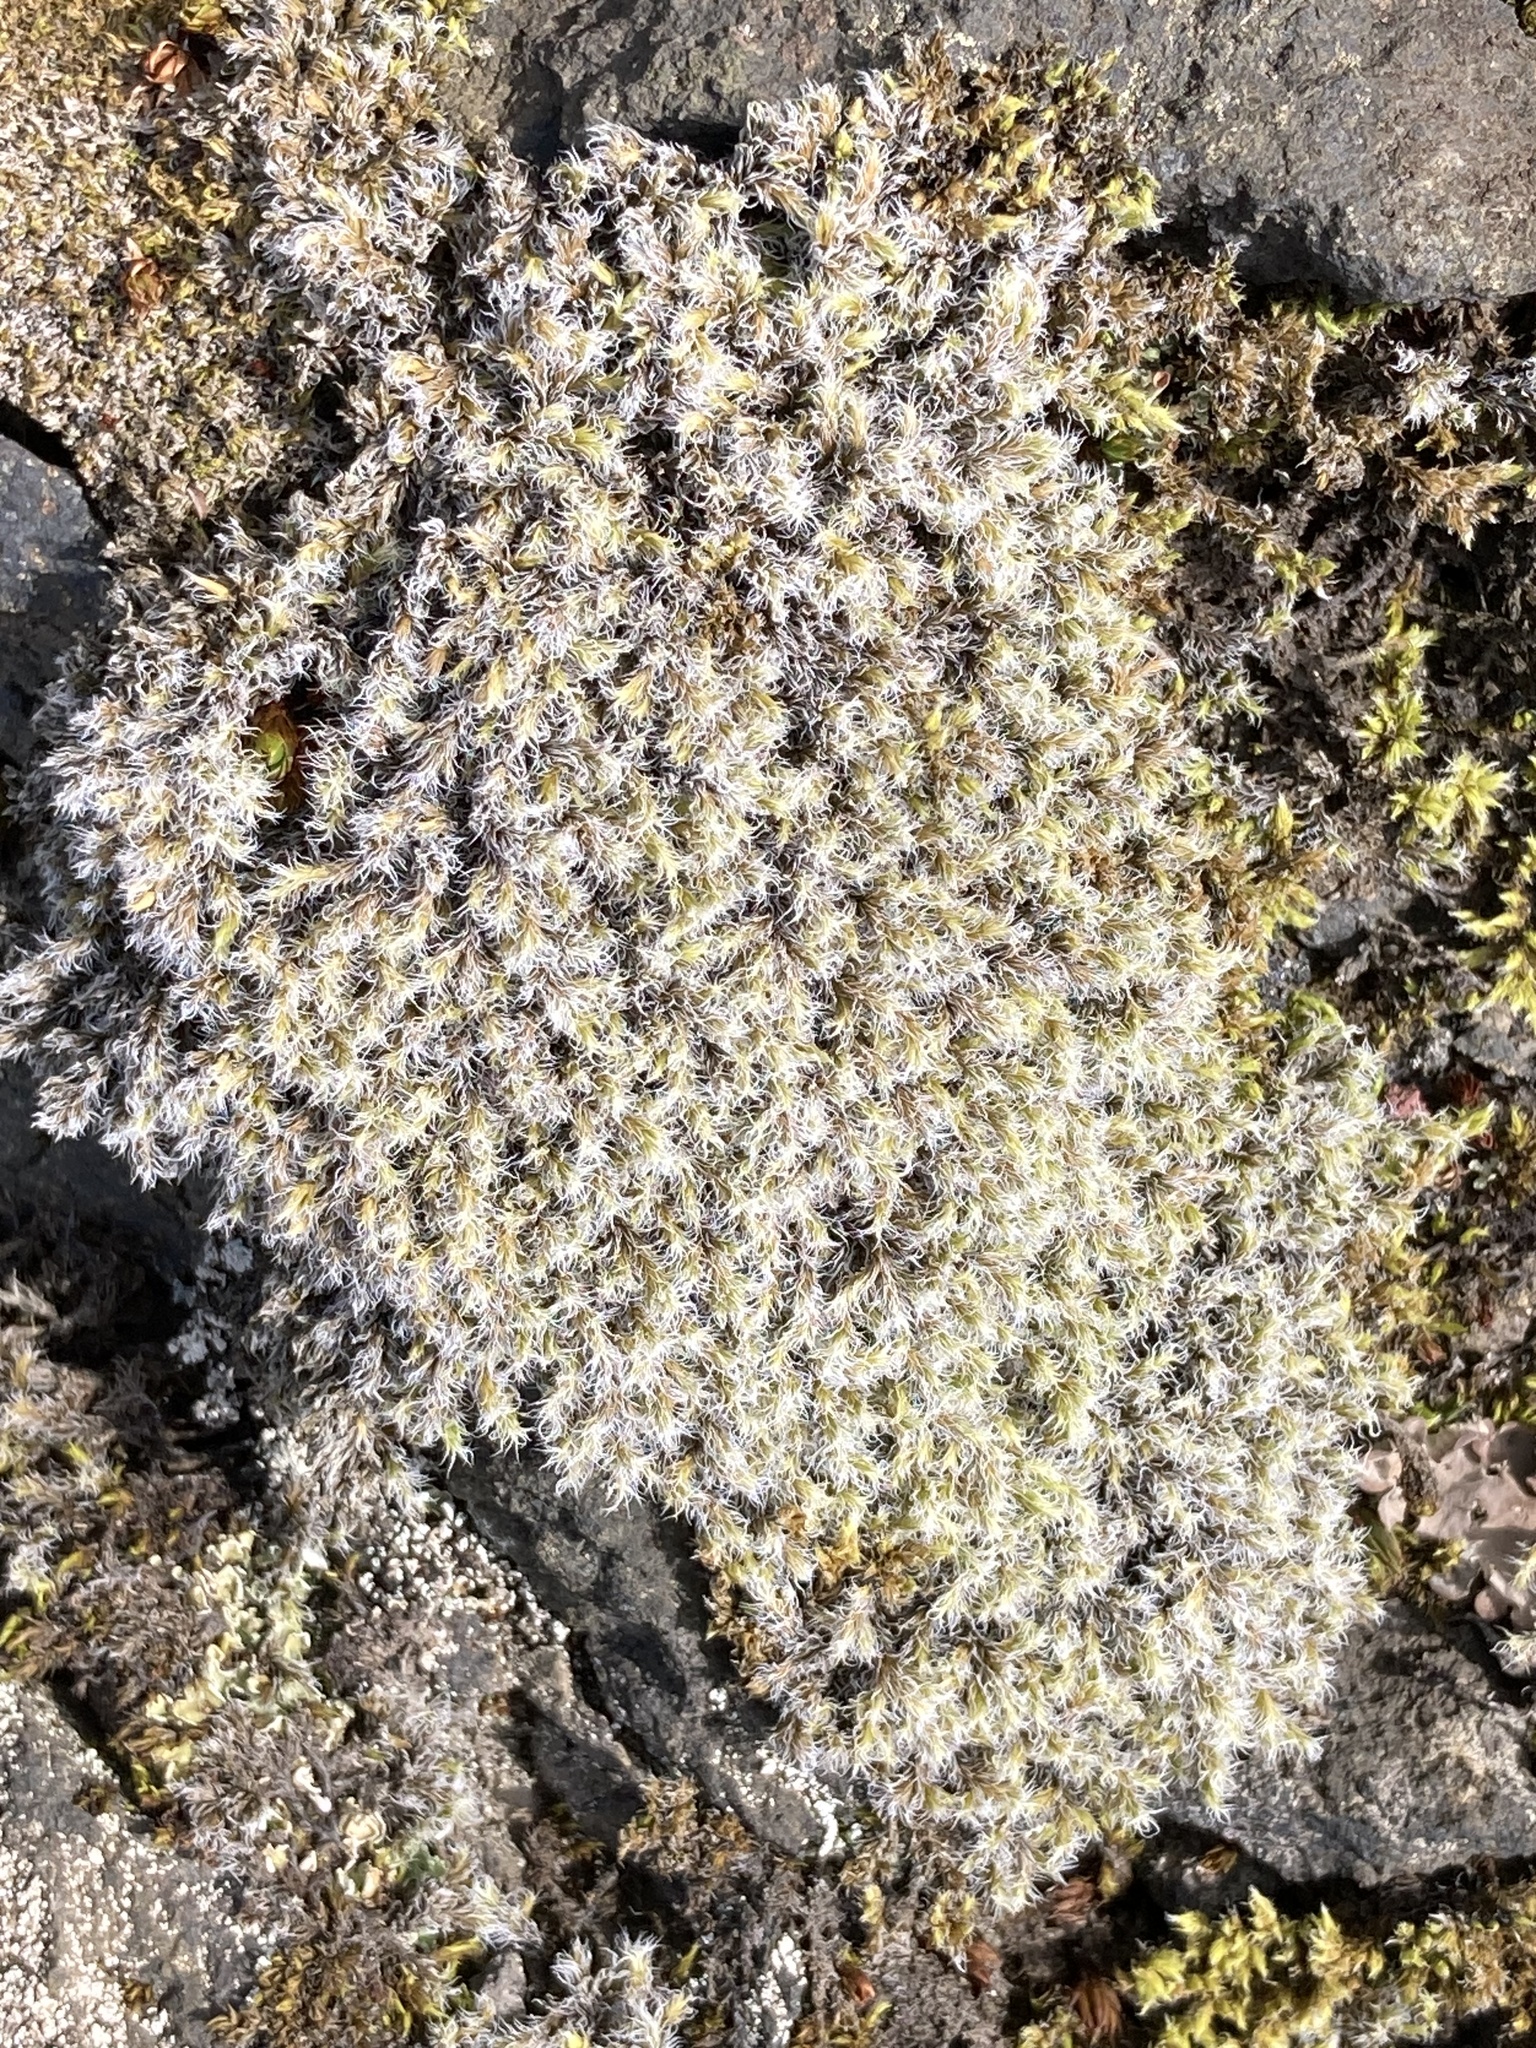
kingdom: Plantae
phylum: Bryophyta
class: Bryopsida
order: Grimmiales
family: Grimmiaceae
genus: Racomitrium
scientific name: Racomitrium lanuginosum
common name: Hoary rock moss
